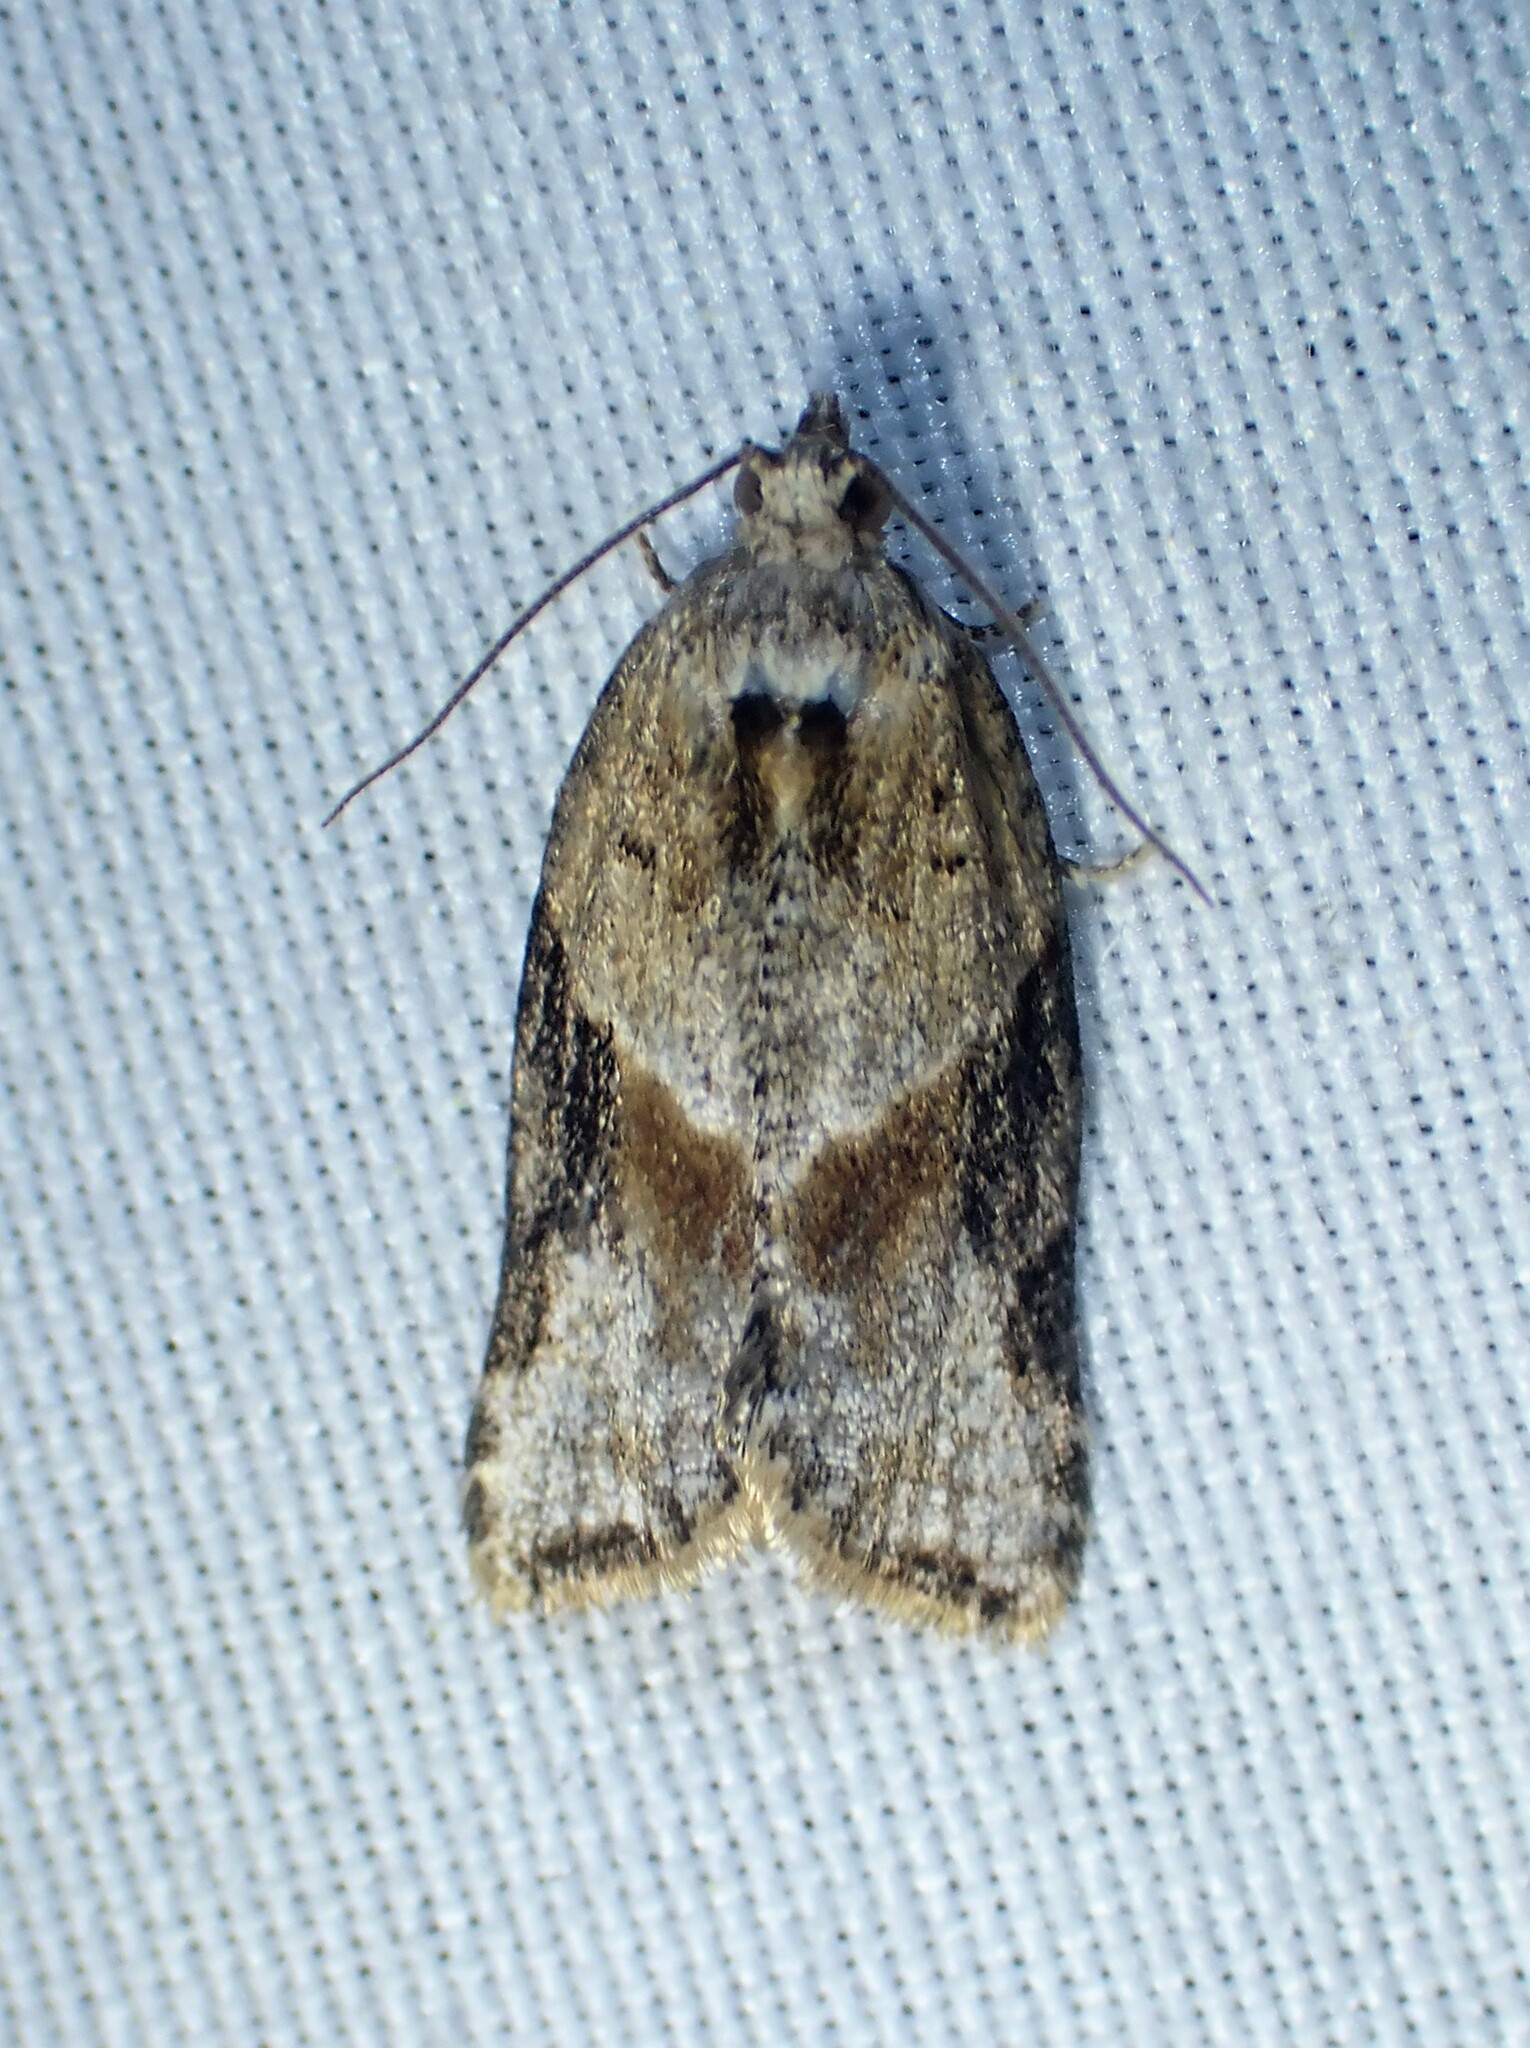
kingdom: Animalia
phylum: Arthropoda
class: Insecta
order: Lepidoptera
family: Tortricidae
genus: Argyrotaenia
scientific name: Argyrotaenia mariana
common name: Gray-banded leafroller moth
